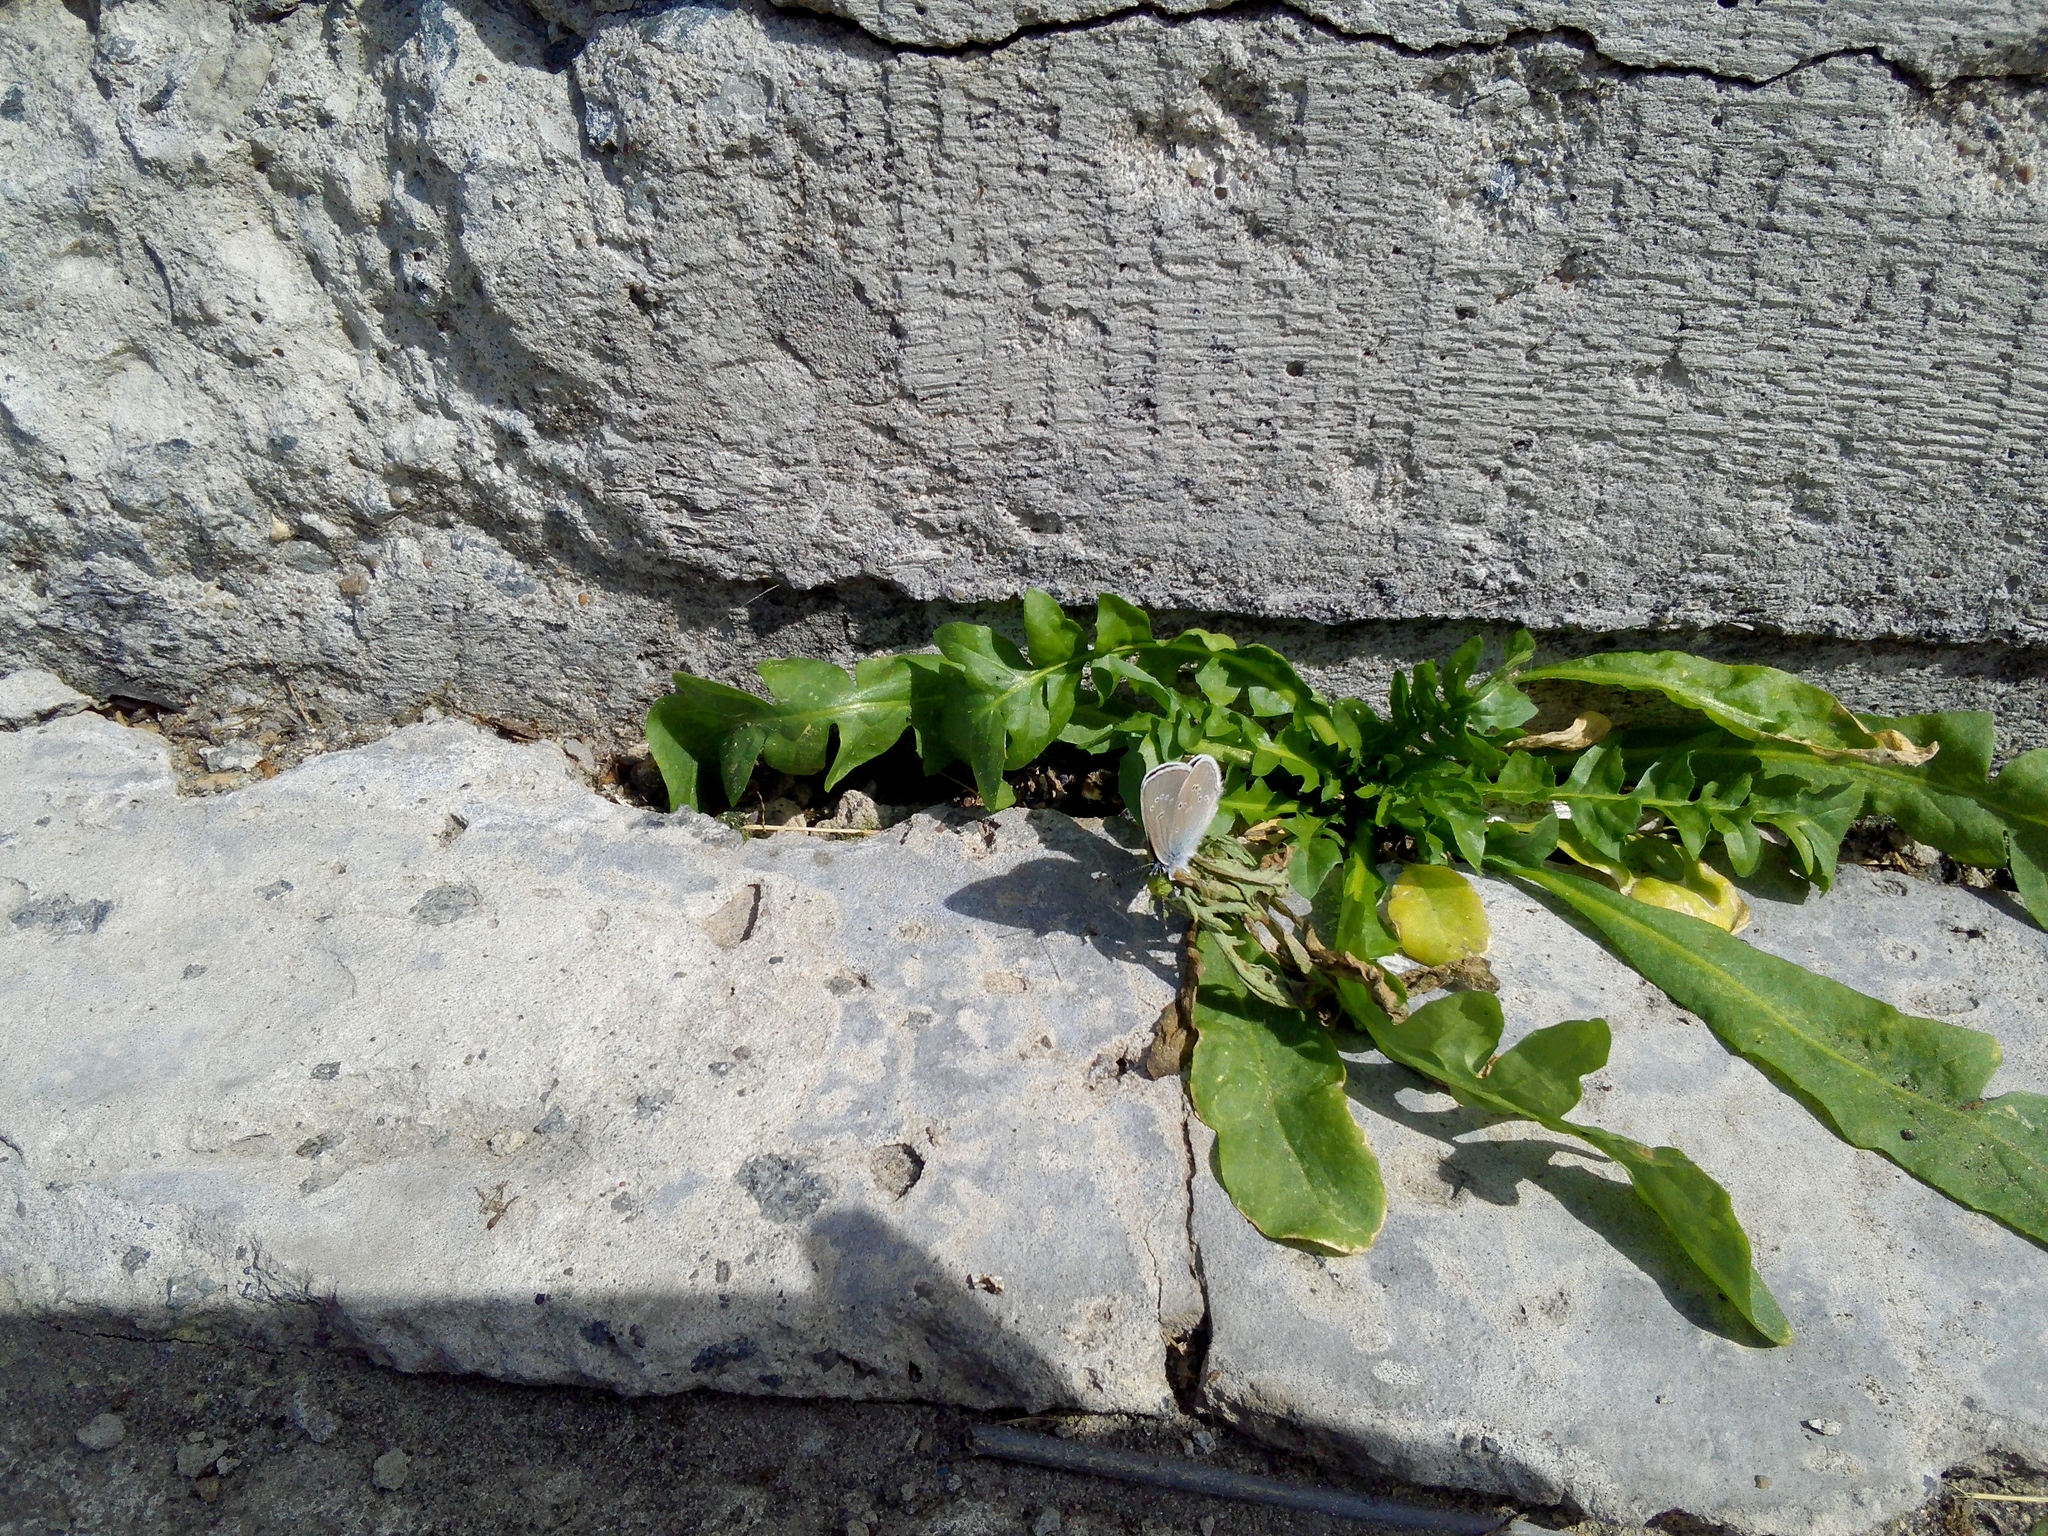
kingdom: Animalia
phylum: Arthropoda
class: Insecta
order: Lepidoptera
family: Lycaenidae
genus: Cyaniris
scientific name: Cyaniris semiargus
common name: Mazarine blue
